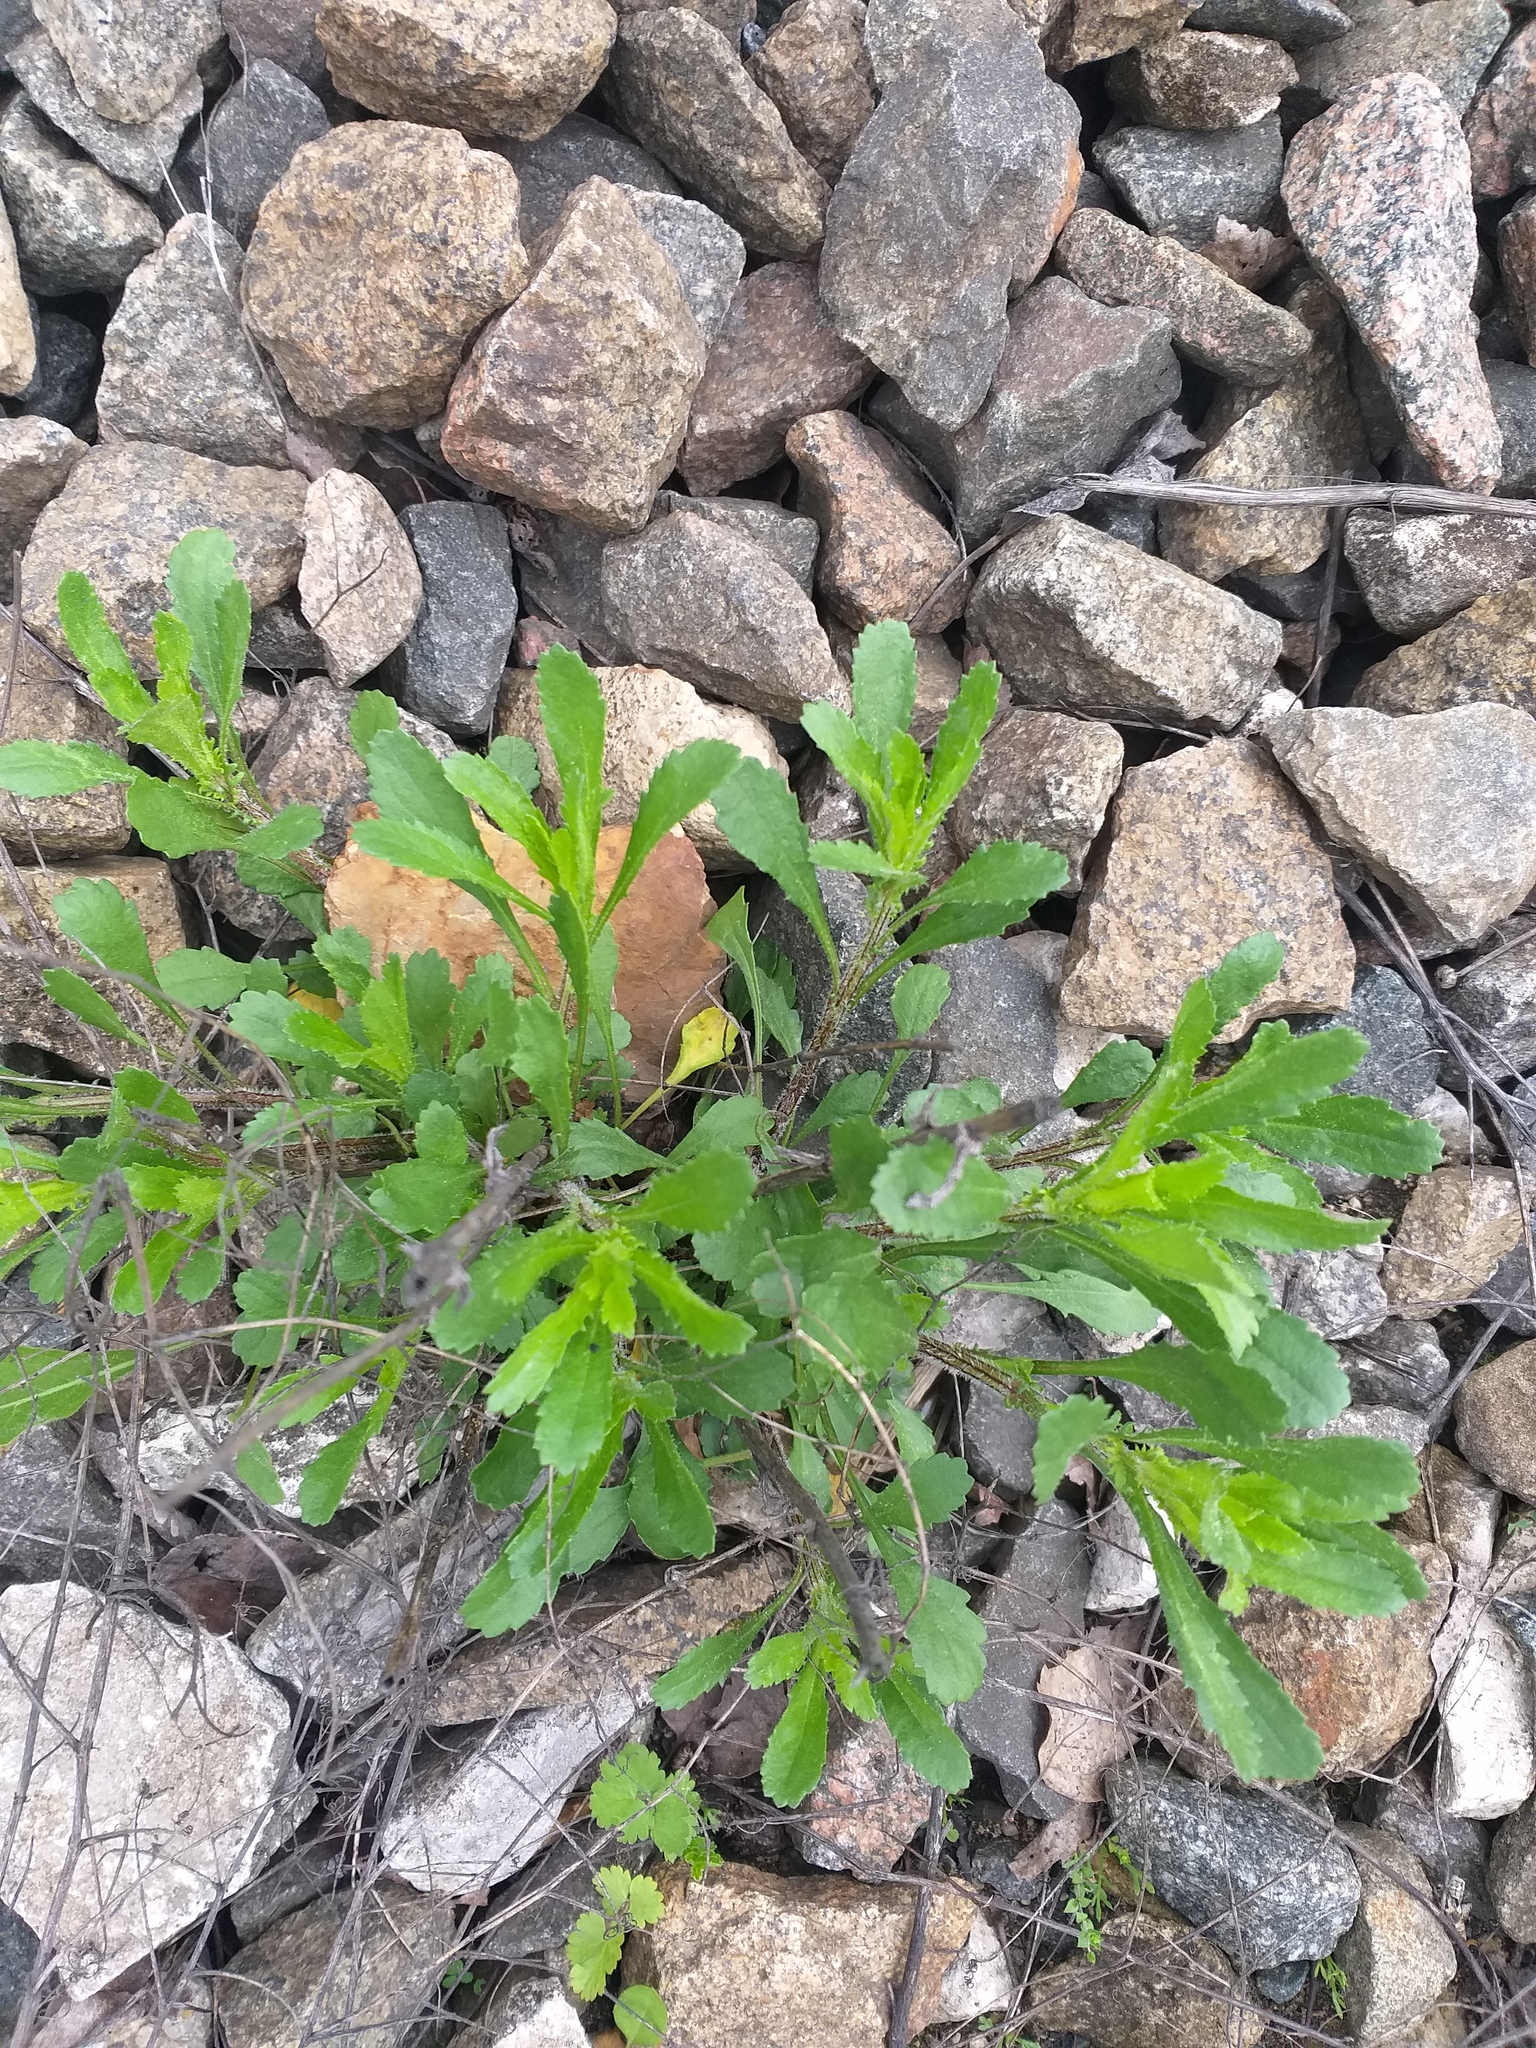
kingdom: Plantae
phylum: Tracheophyta
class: Magnoliopsida
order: Asterales
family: Asteraceae
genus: Leucanthemum
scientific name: Leucanthemum vulgare
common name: Oxeye daisy
